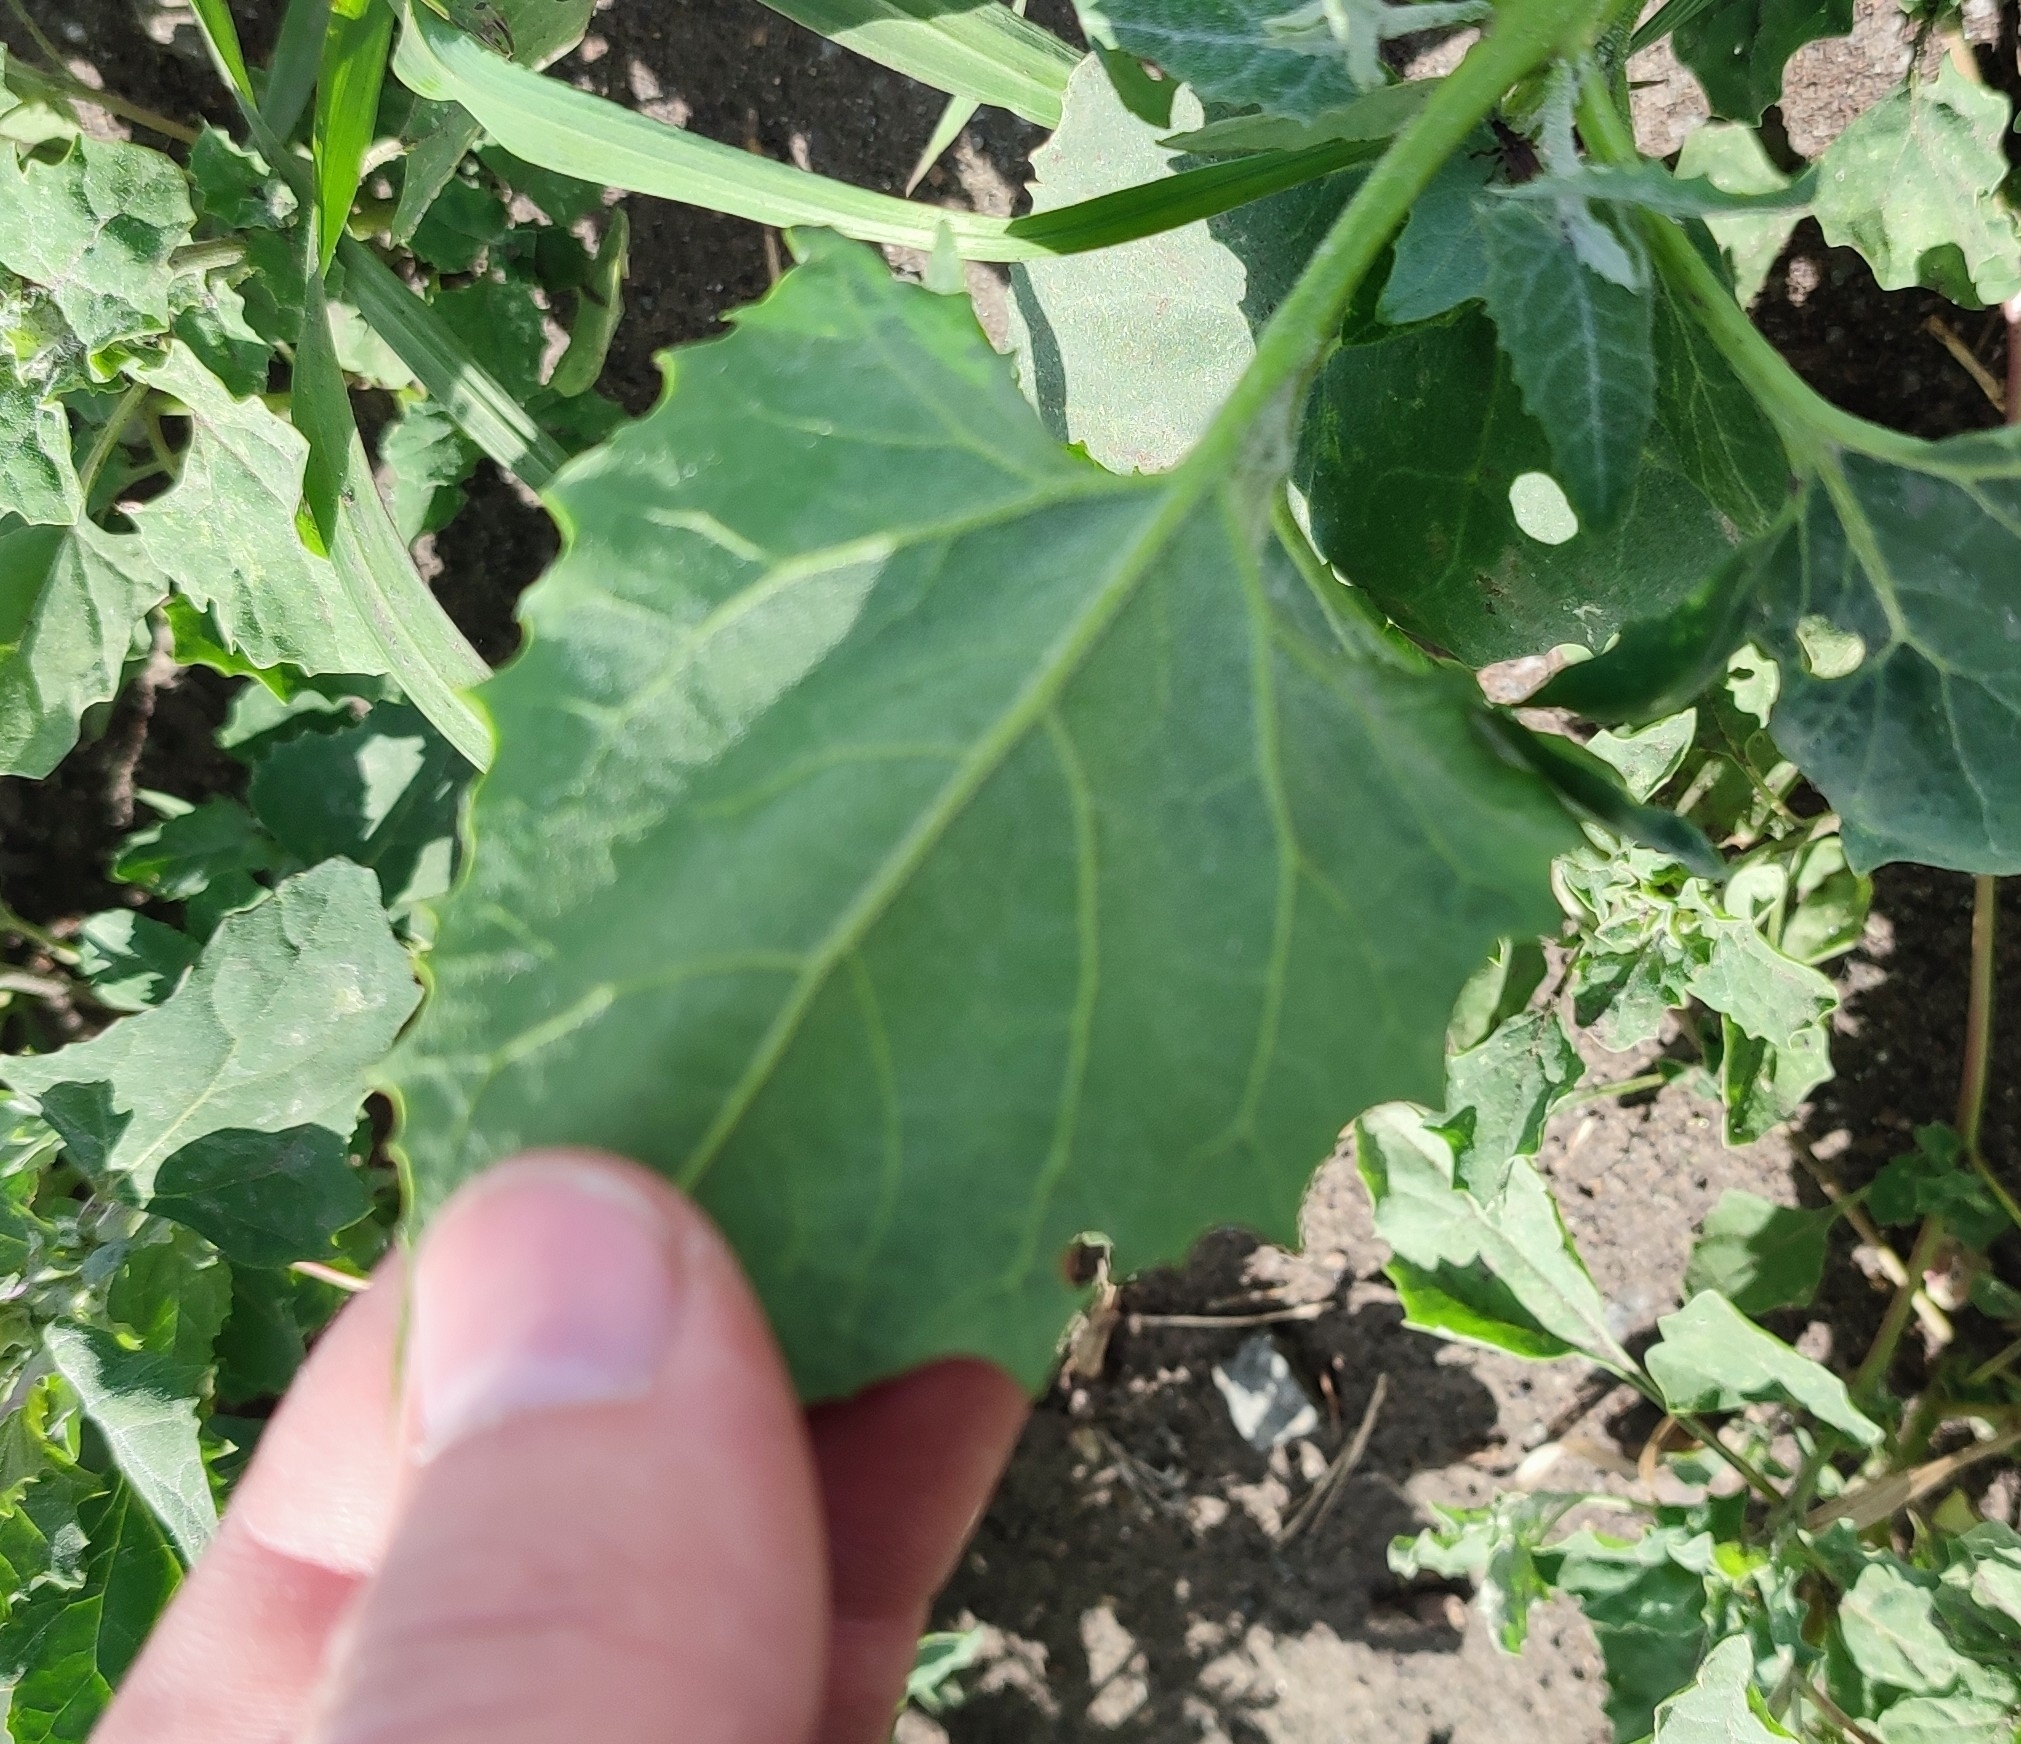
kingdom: Plantae
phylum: Tracheophyta
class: Magnoliopsida
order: Caryophyllales
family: Amaranthaceae
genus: Atriplex
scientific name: Atriplex sagittata
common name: Purple orache
